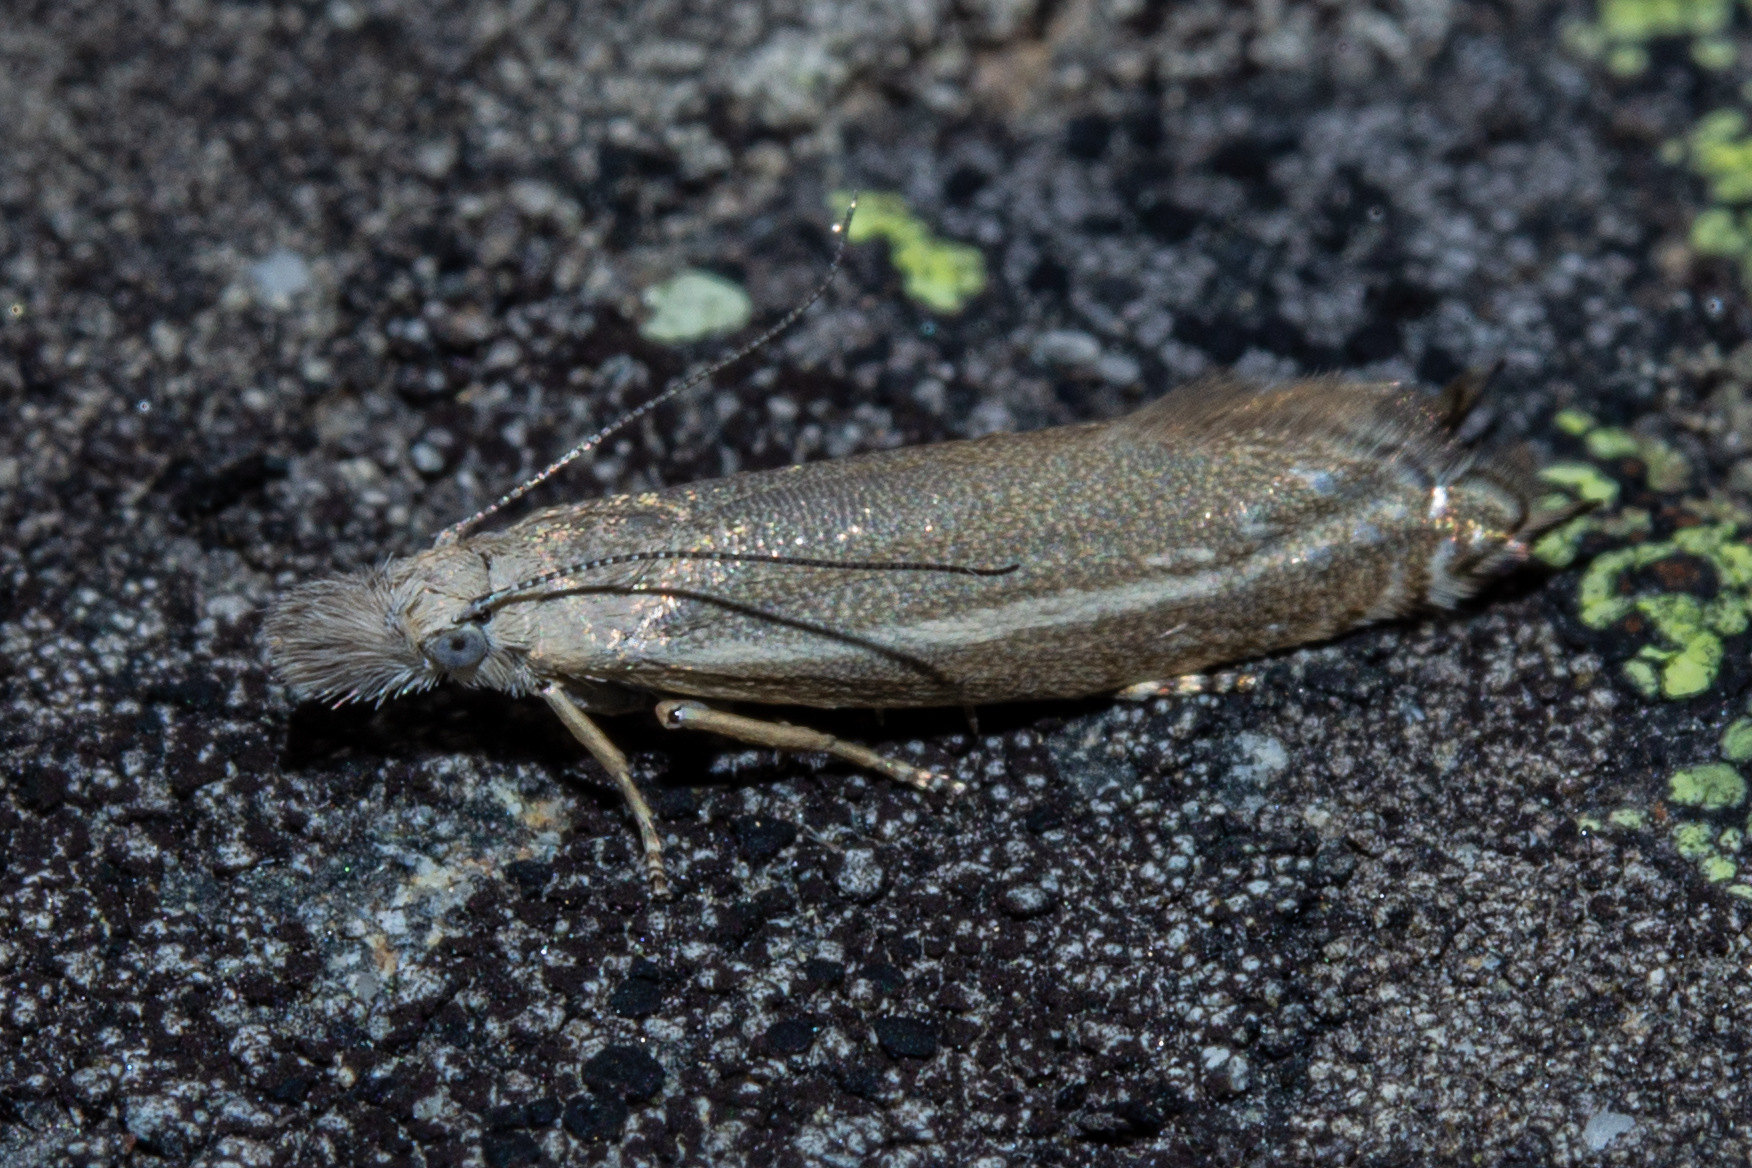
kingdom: Animalia
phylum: Arthropoda
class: Insecta
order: Lepidoptera
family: Glyphipterigidae
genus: Glyphipterix
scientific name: Glyphipterix barbata
